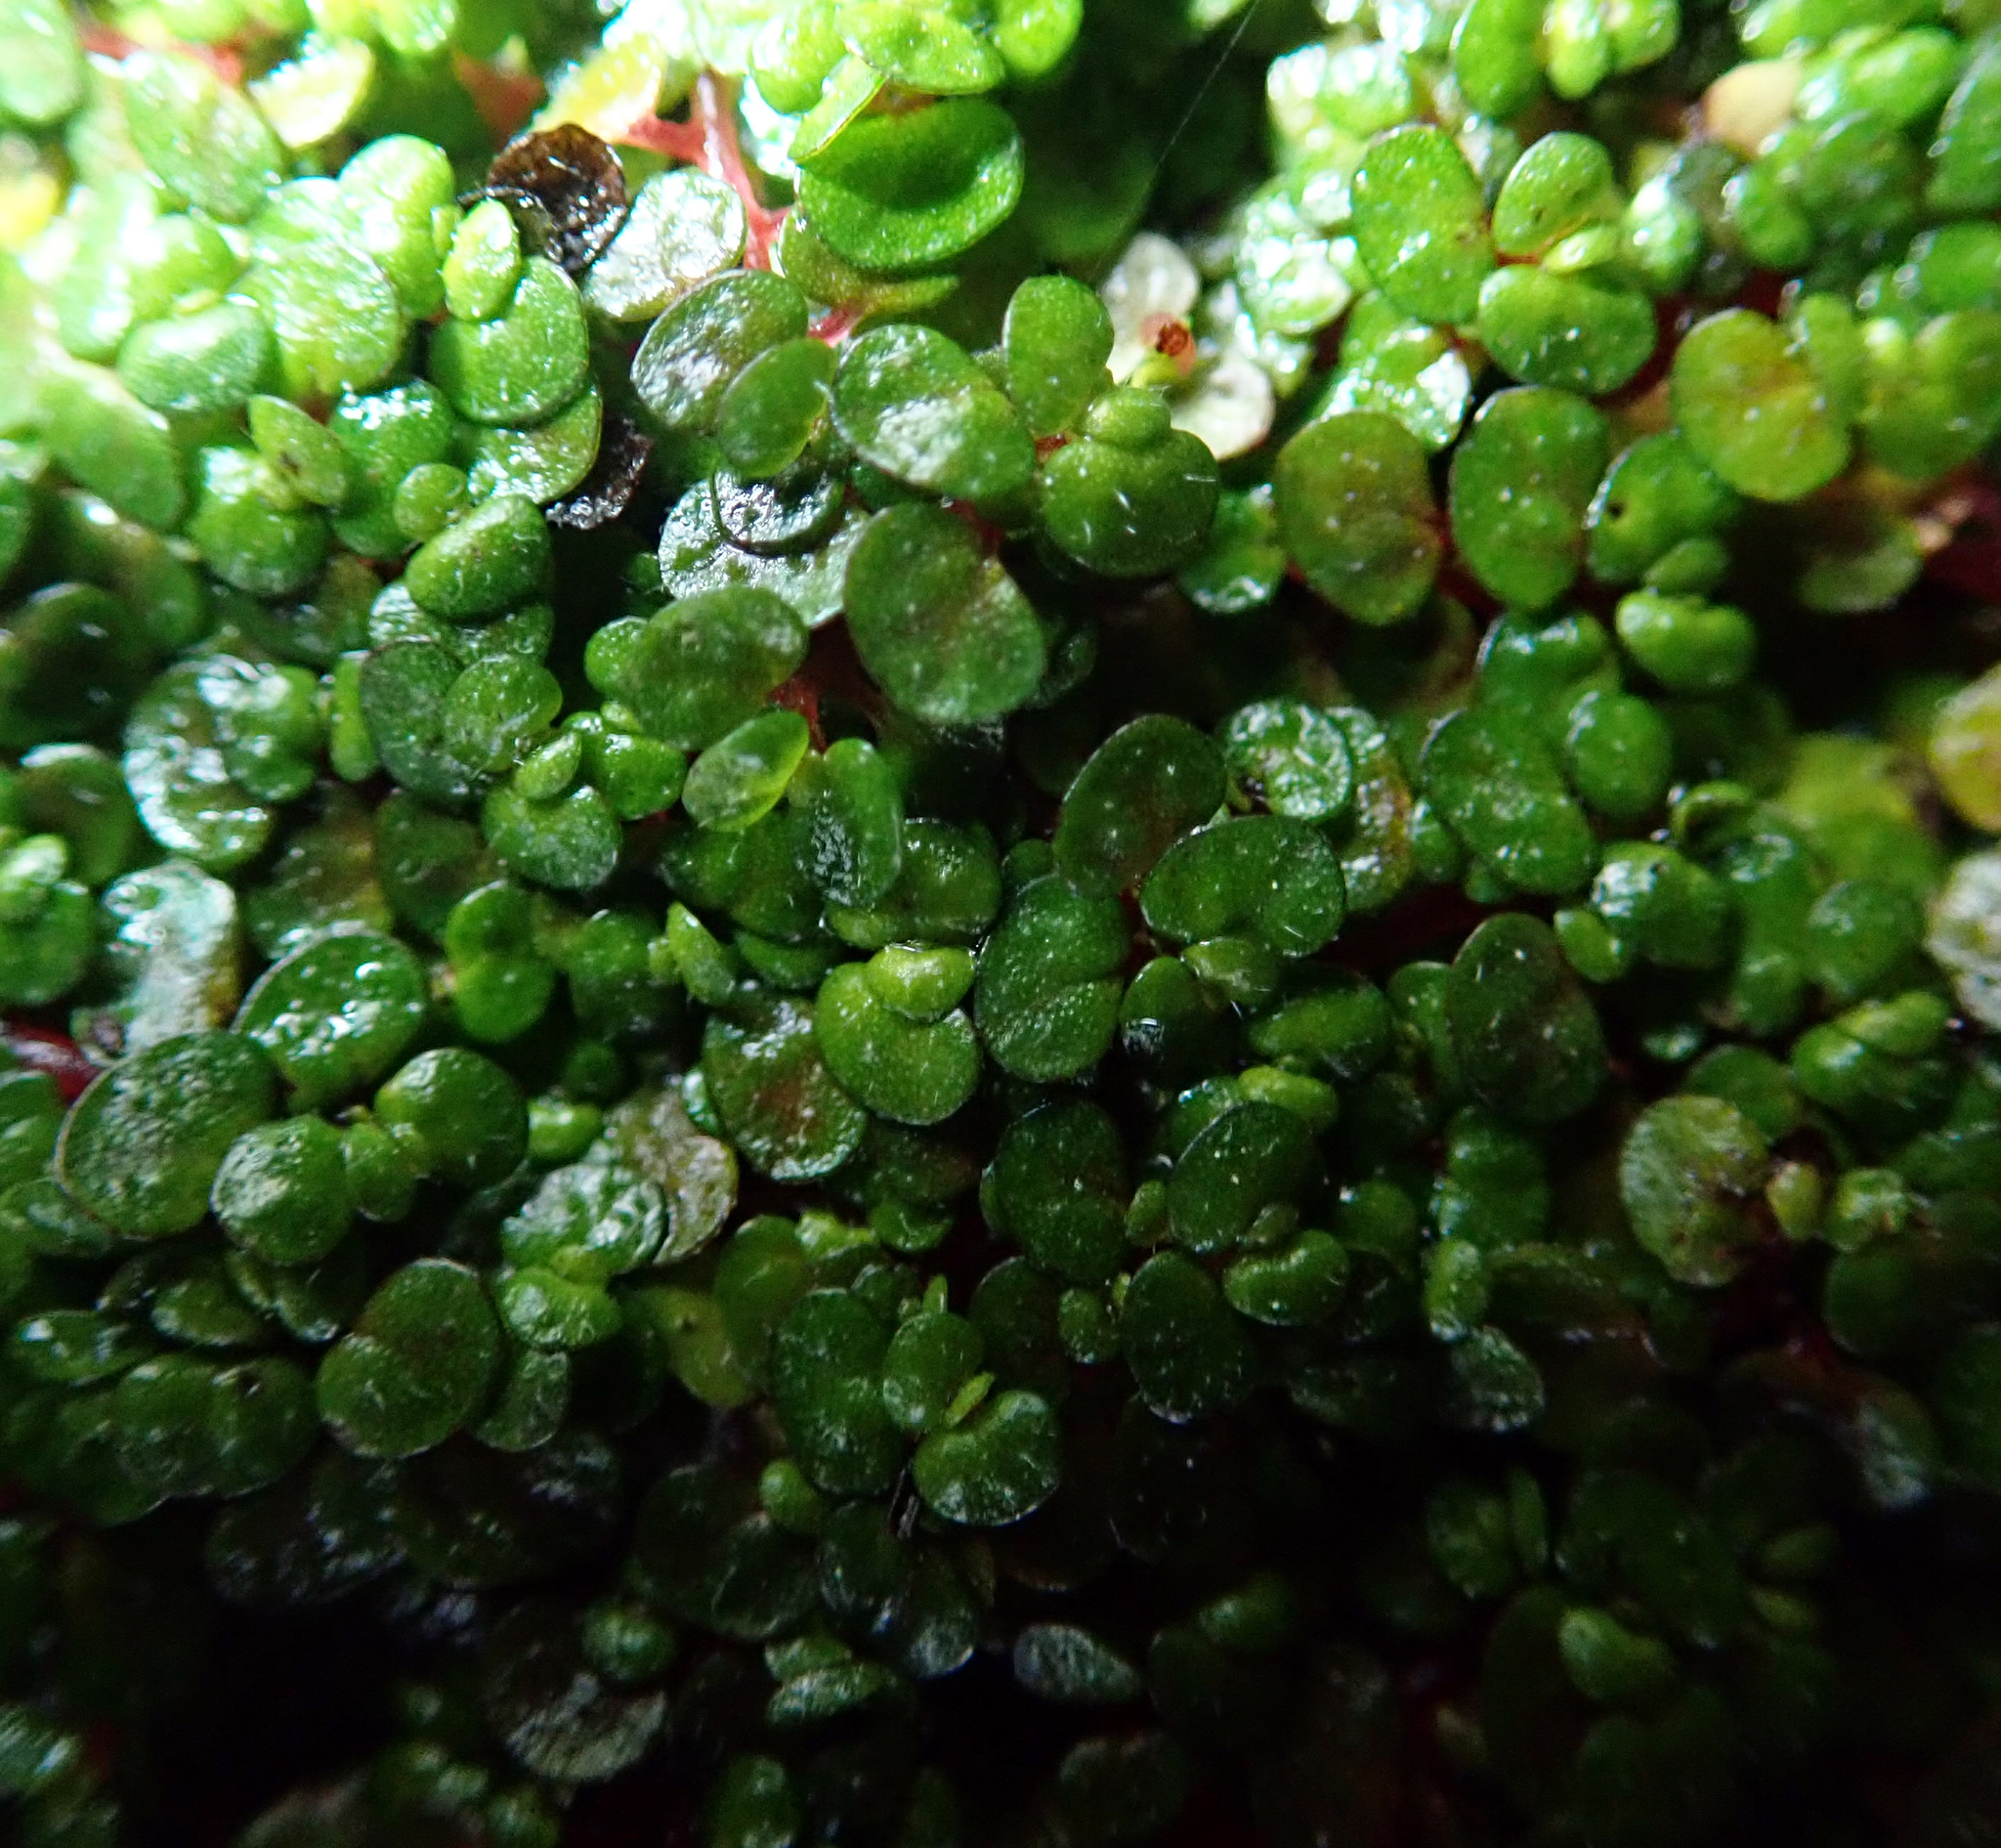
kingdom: Plantae
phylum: Tracheophyta
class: Magnoliopsida
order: Rosales
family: Urticaceae
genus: Soleirolia
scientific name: Soleirolia soleirolii
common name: Mind-your-own-business
